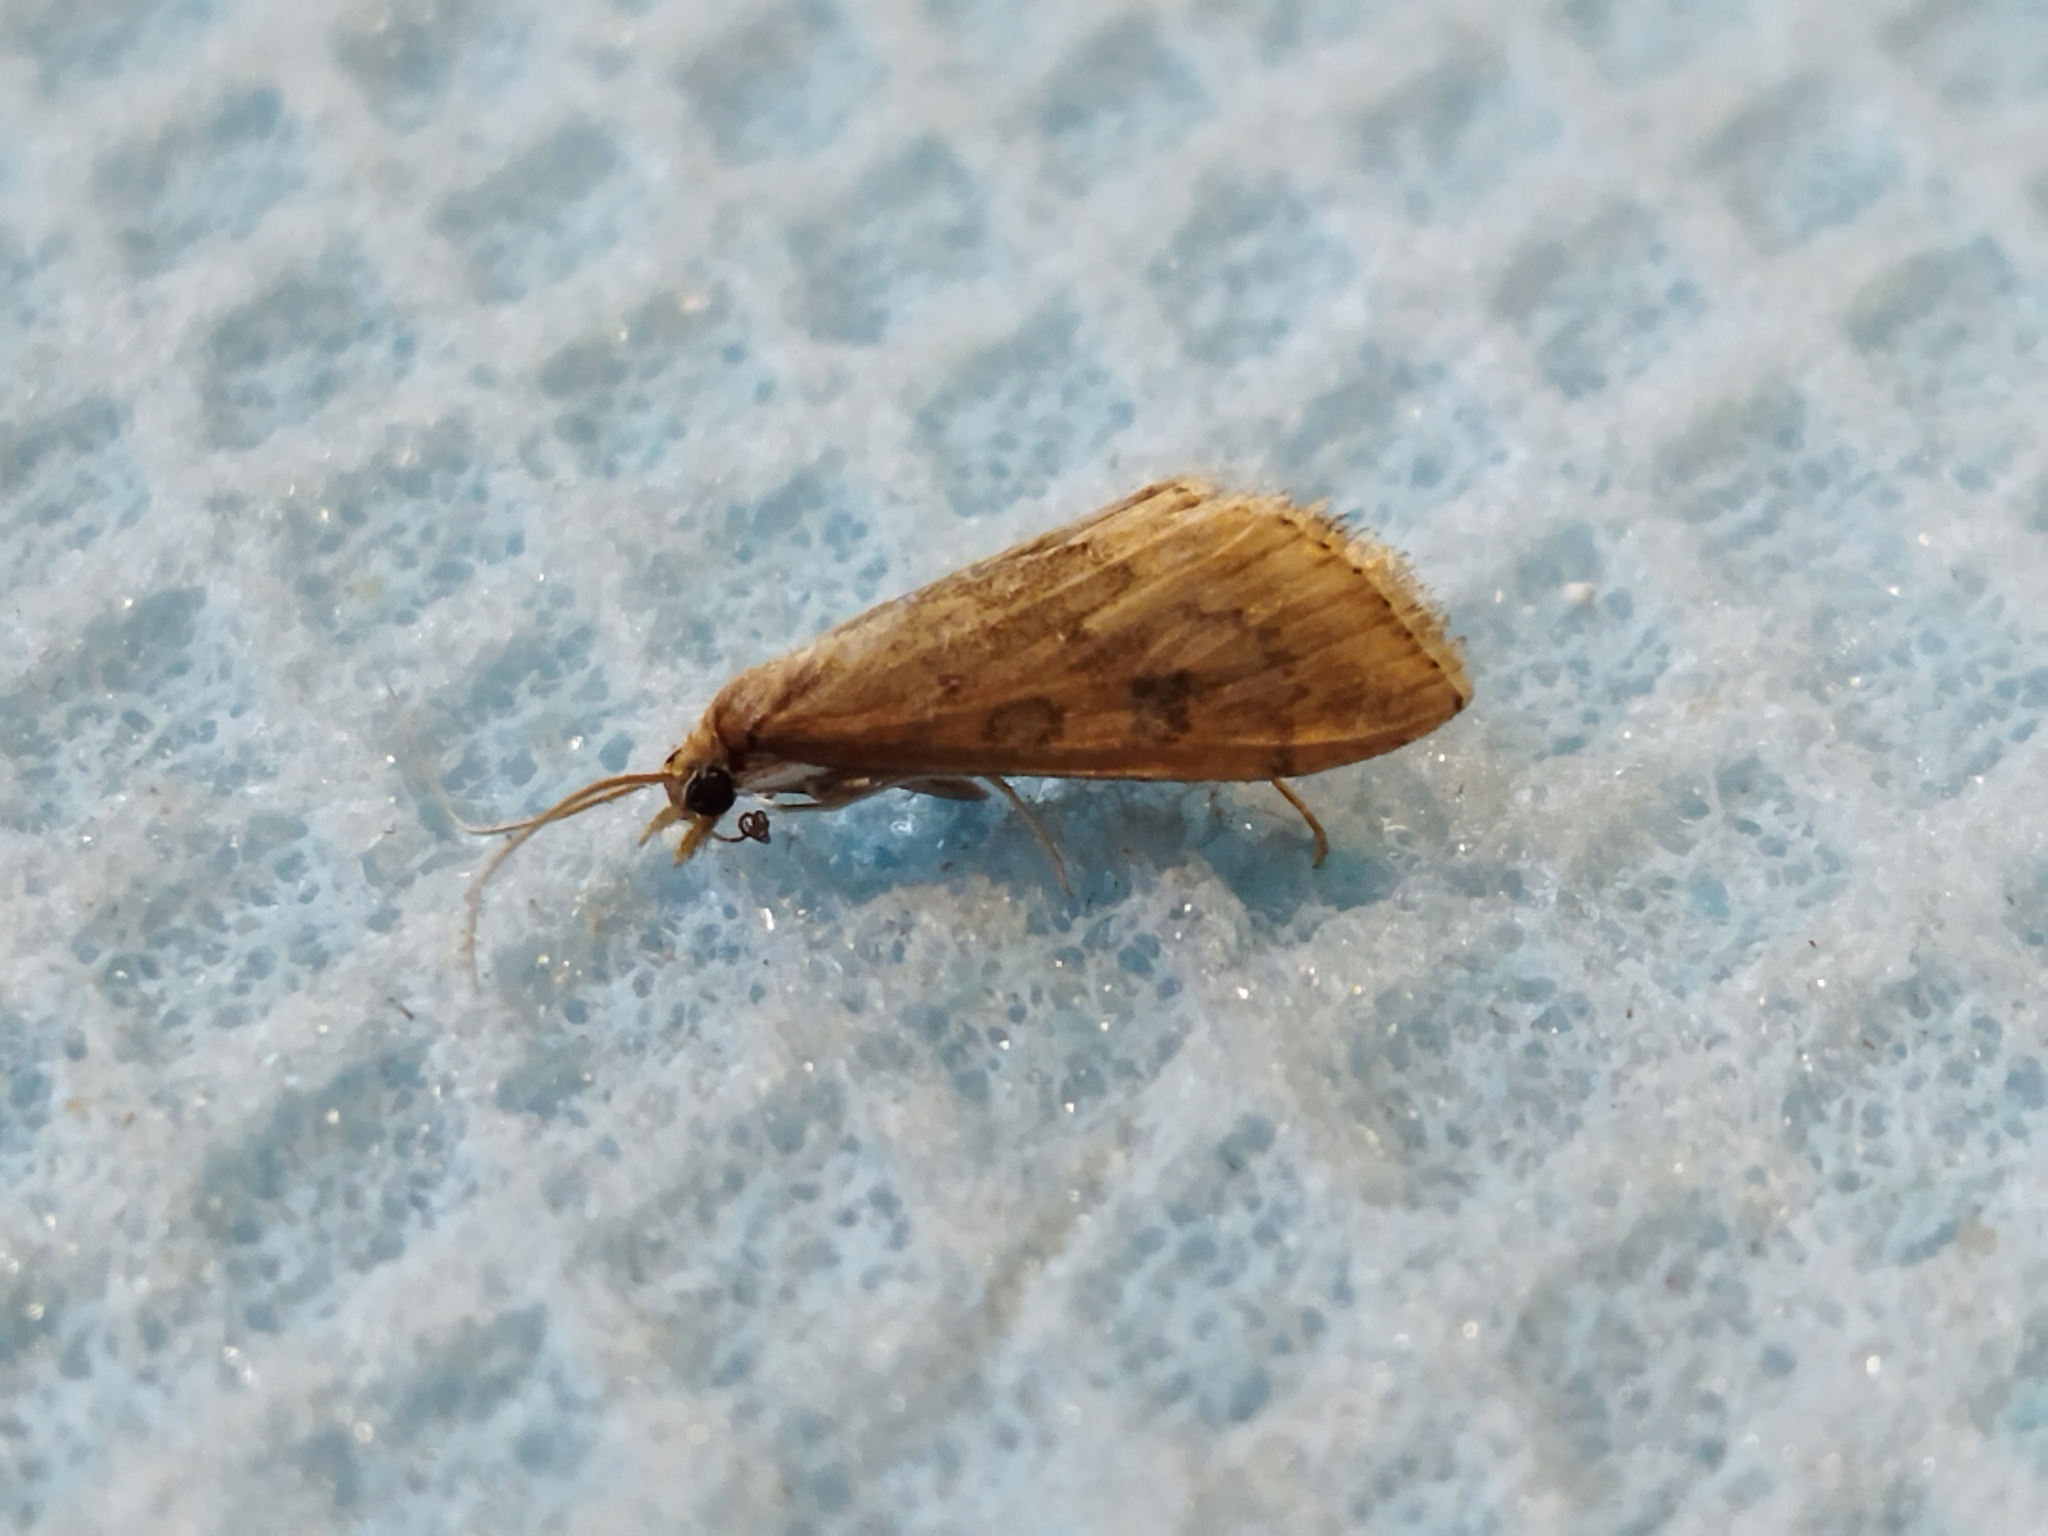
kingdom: Animalia
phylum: Arthropoda
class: Insecta
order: Lepidoptera
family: Crambidae
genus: Udea
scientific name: Udea ferrugalis
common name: Rusty dot
